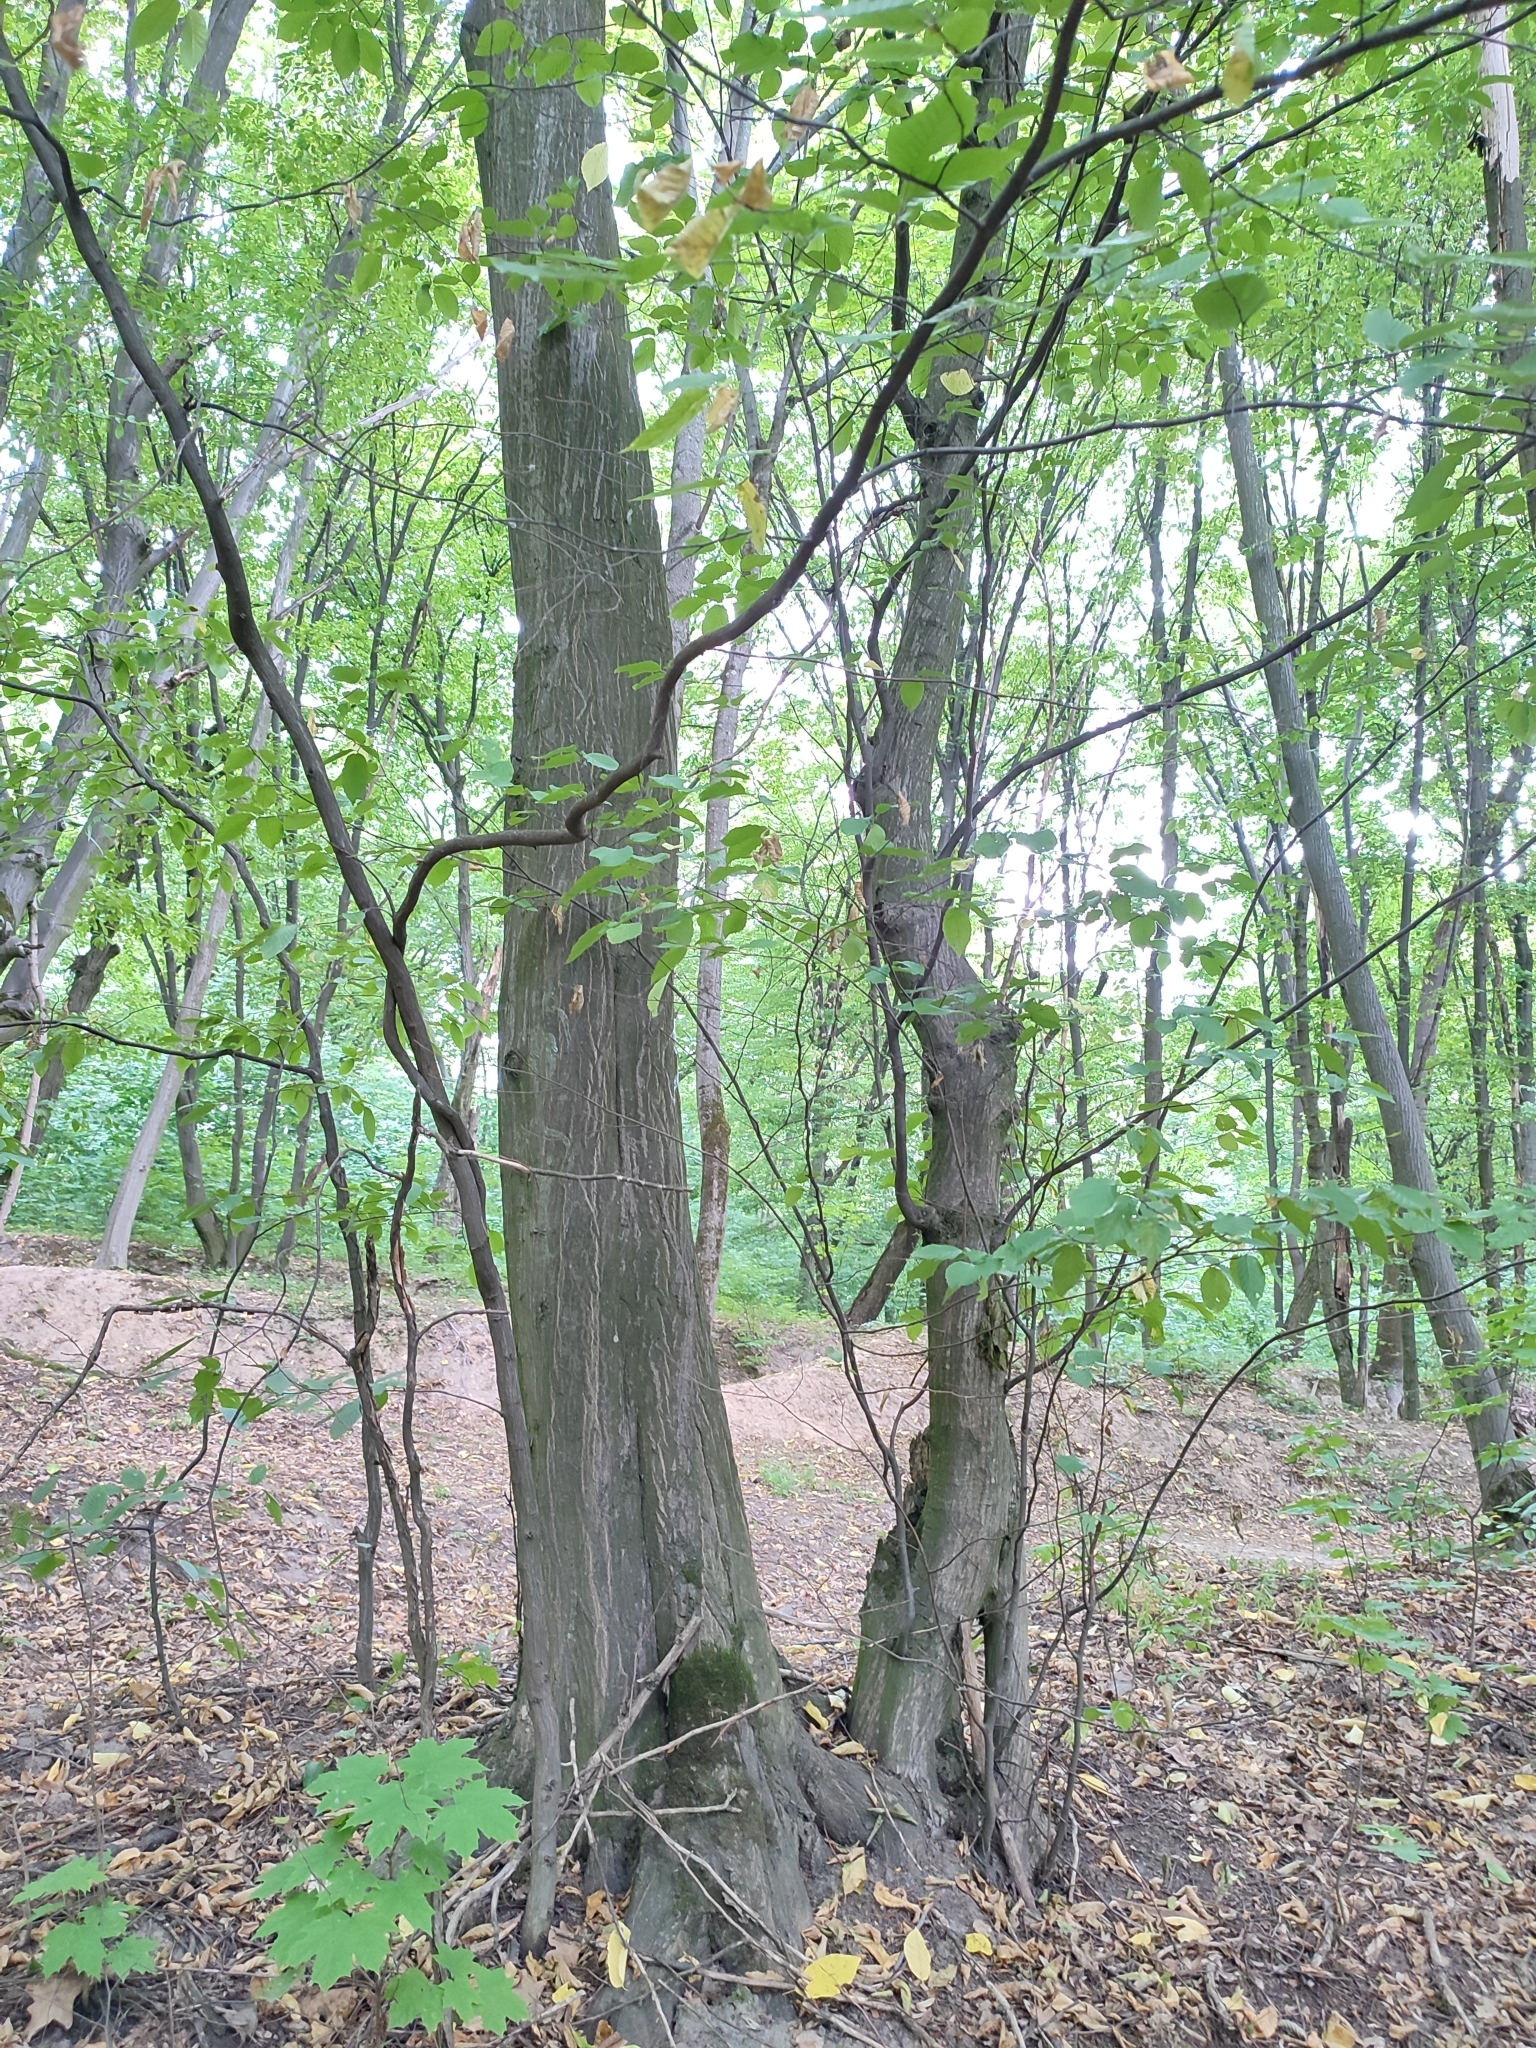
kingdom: Plantae
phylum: Tracheophyta
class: Magnoliopsida
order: Fagales
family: Betulaceae
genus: Carpinus
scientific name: Carpinus betulus
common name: Hornbeam
